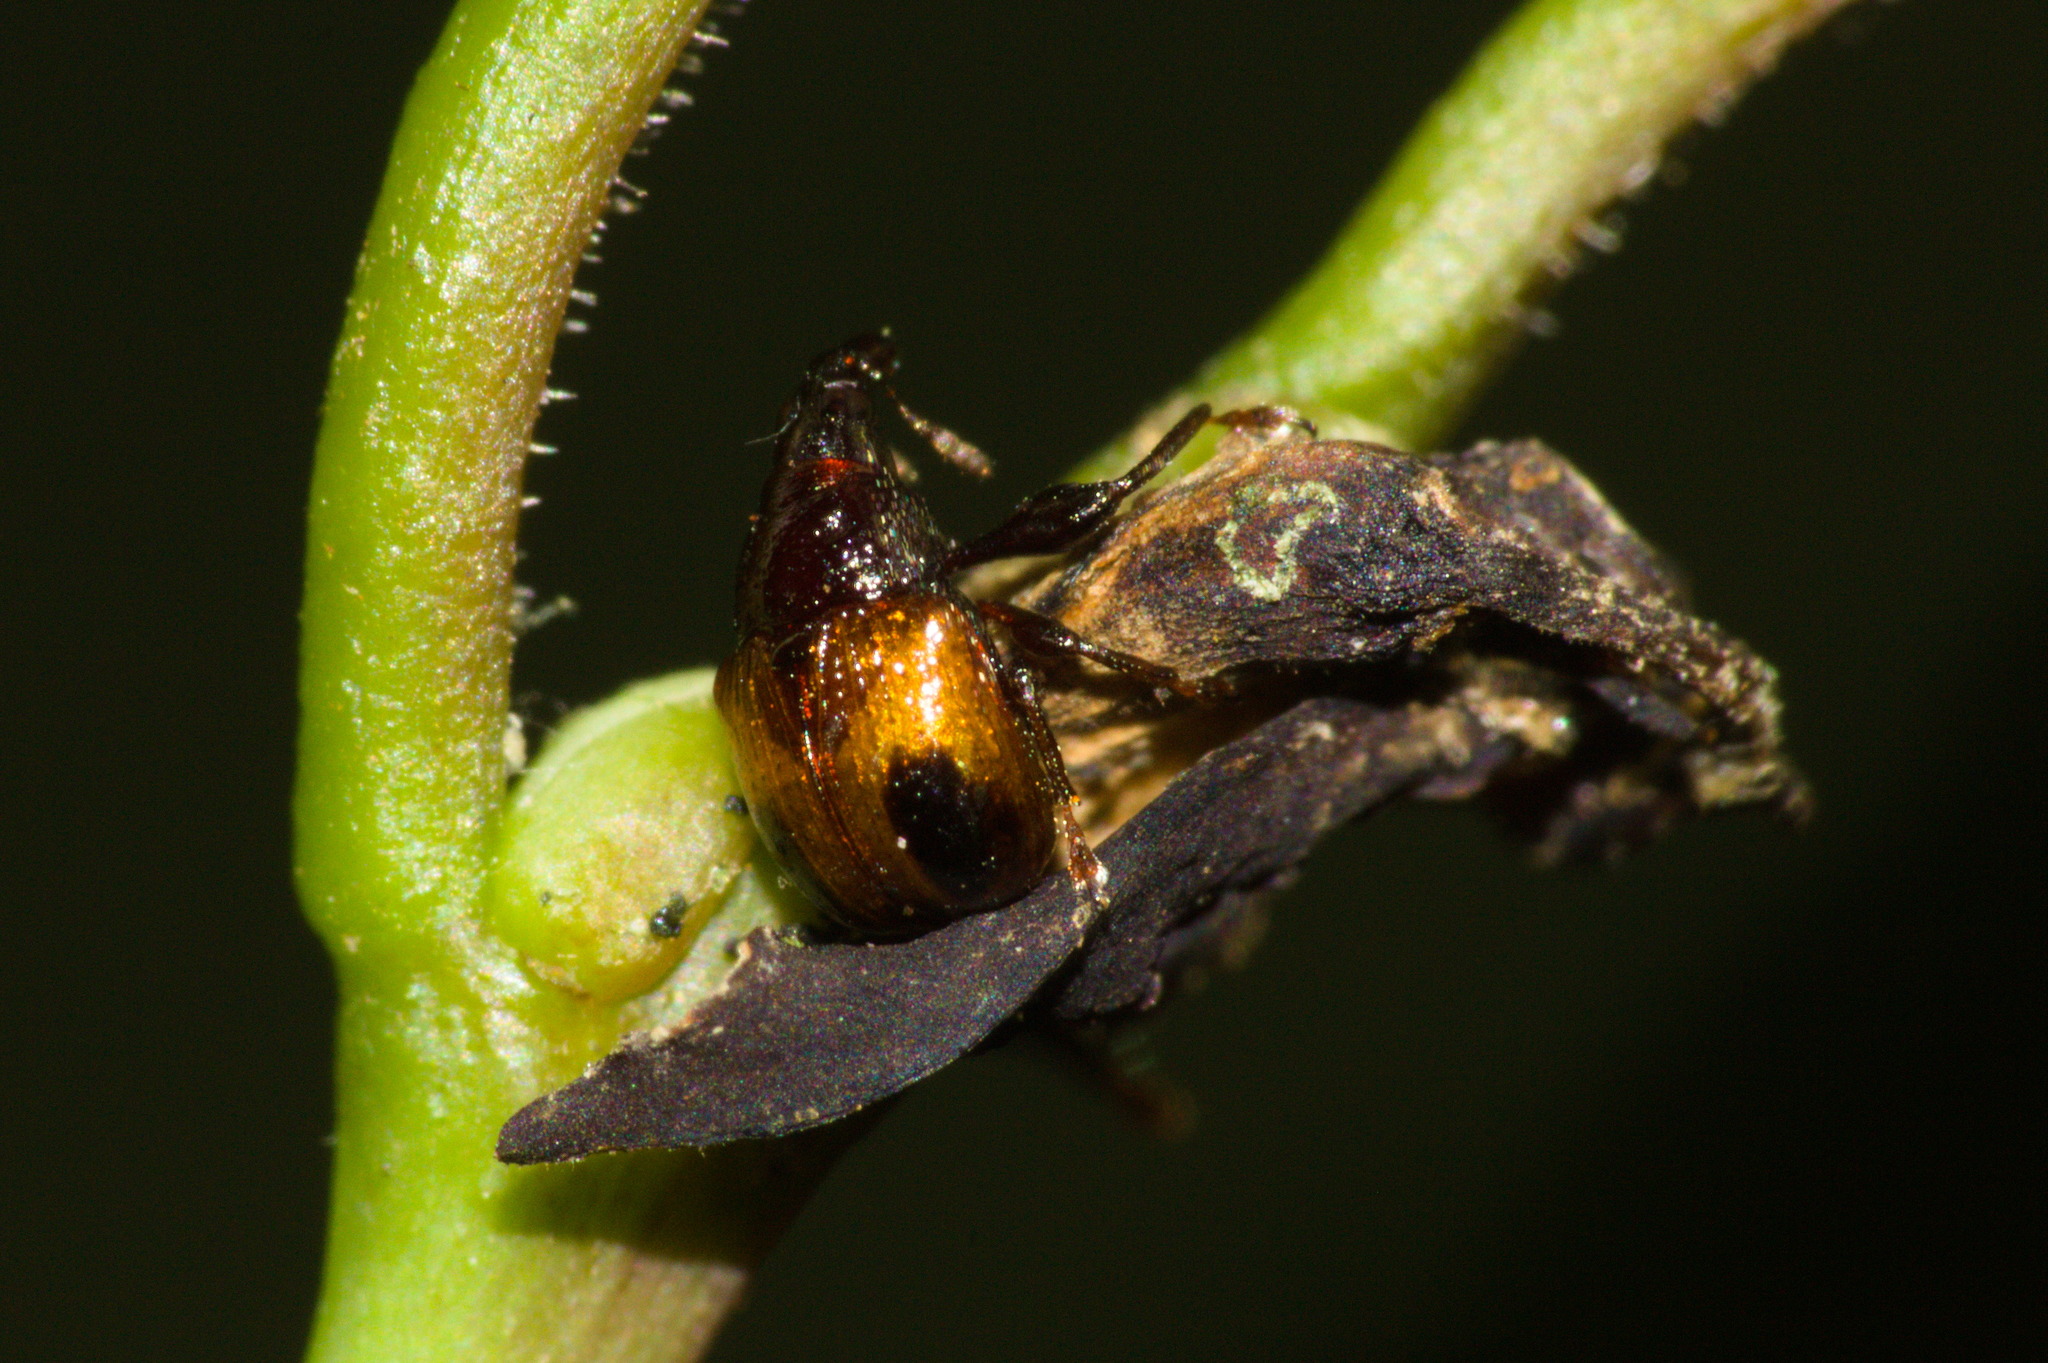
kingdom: Animalia
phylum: Arthropoda
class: Insecta
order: Coleoptera
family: Attelabidae
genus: Xestolabus
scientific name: Xestolabus biplagiatus
